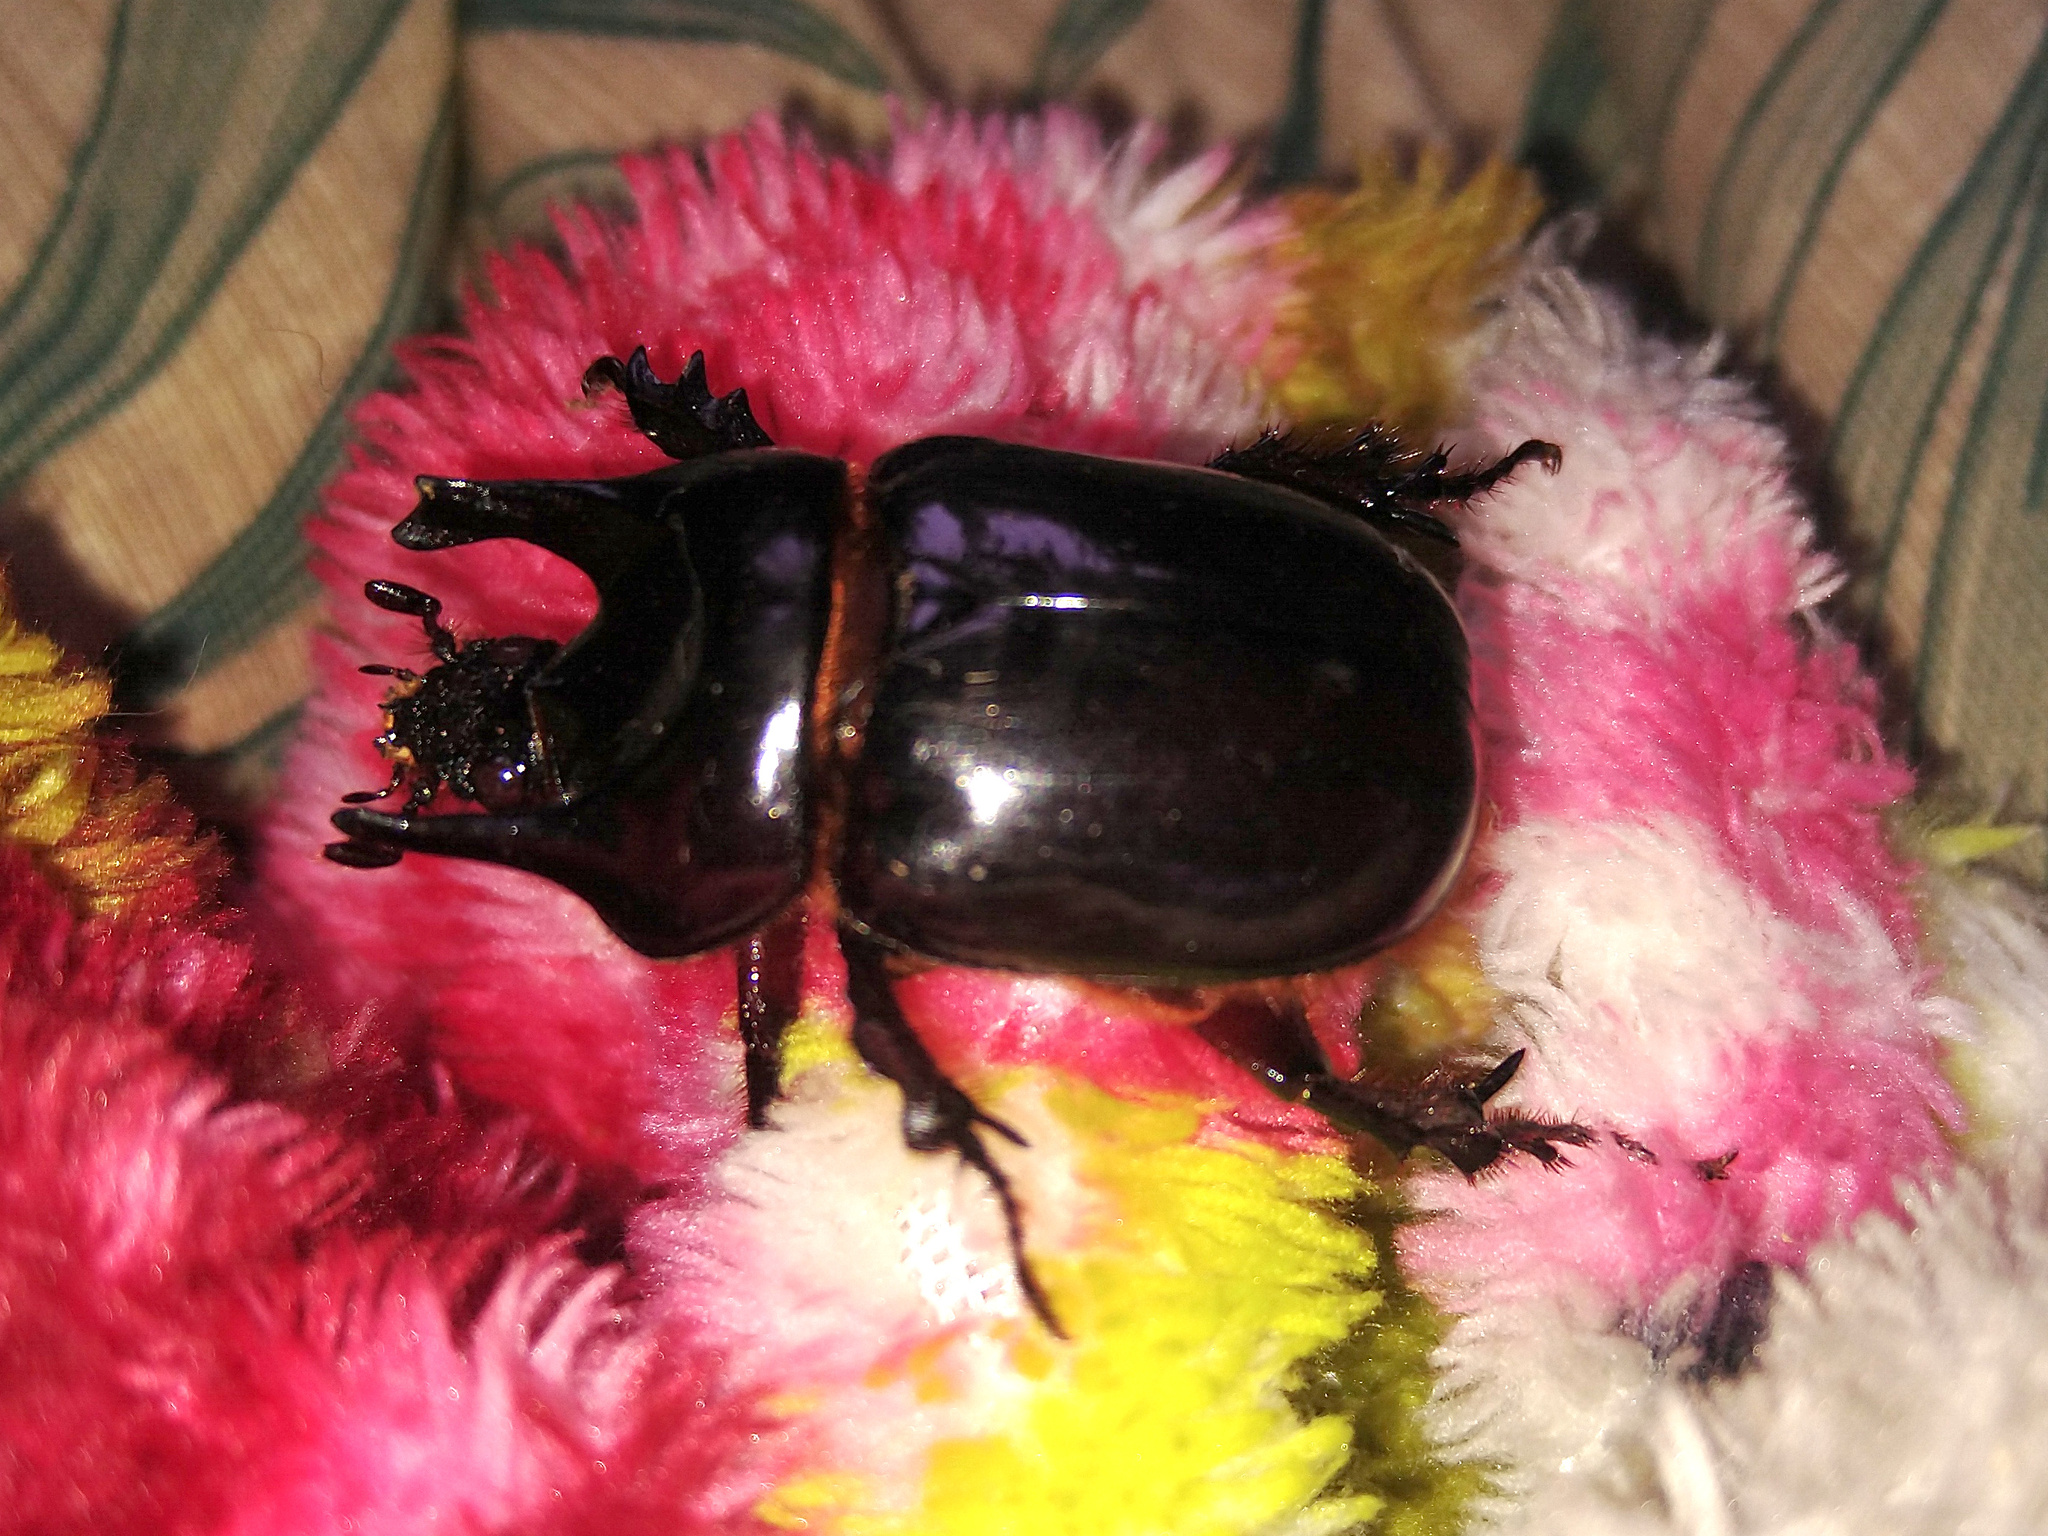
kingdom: Animalia
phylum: Arthropoda
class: Insecta
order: Coleoptera
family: Scarabaeidae
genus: Bothynus
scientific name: Bothynus entellus
